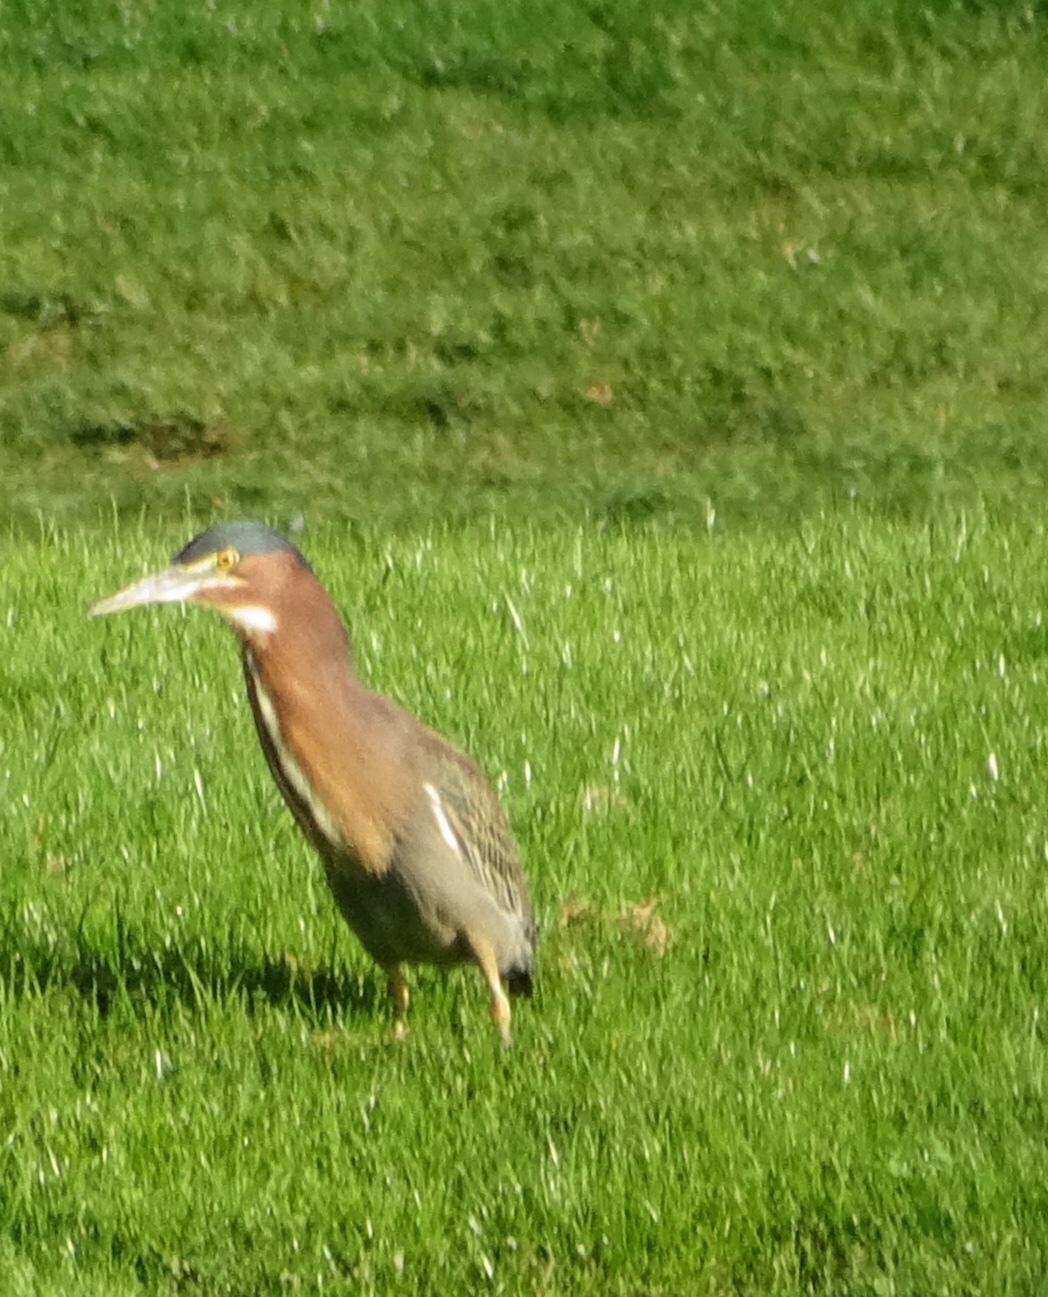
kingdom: Animalia
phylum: Chordata
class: Aves
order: Pelecaniformes
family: Ardeidae
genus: Butorides
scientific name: Butorides virescens
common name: Green heron
